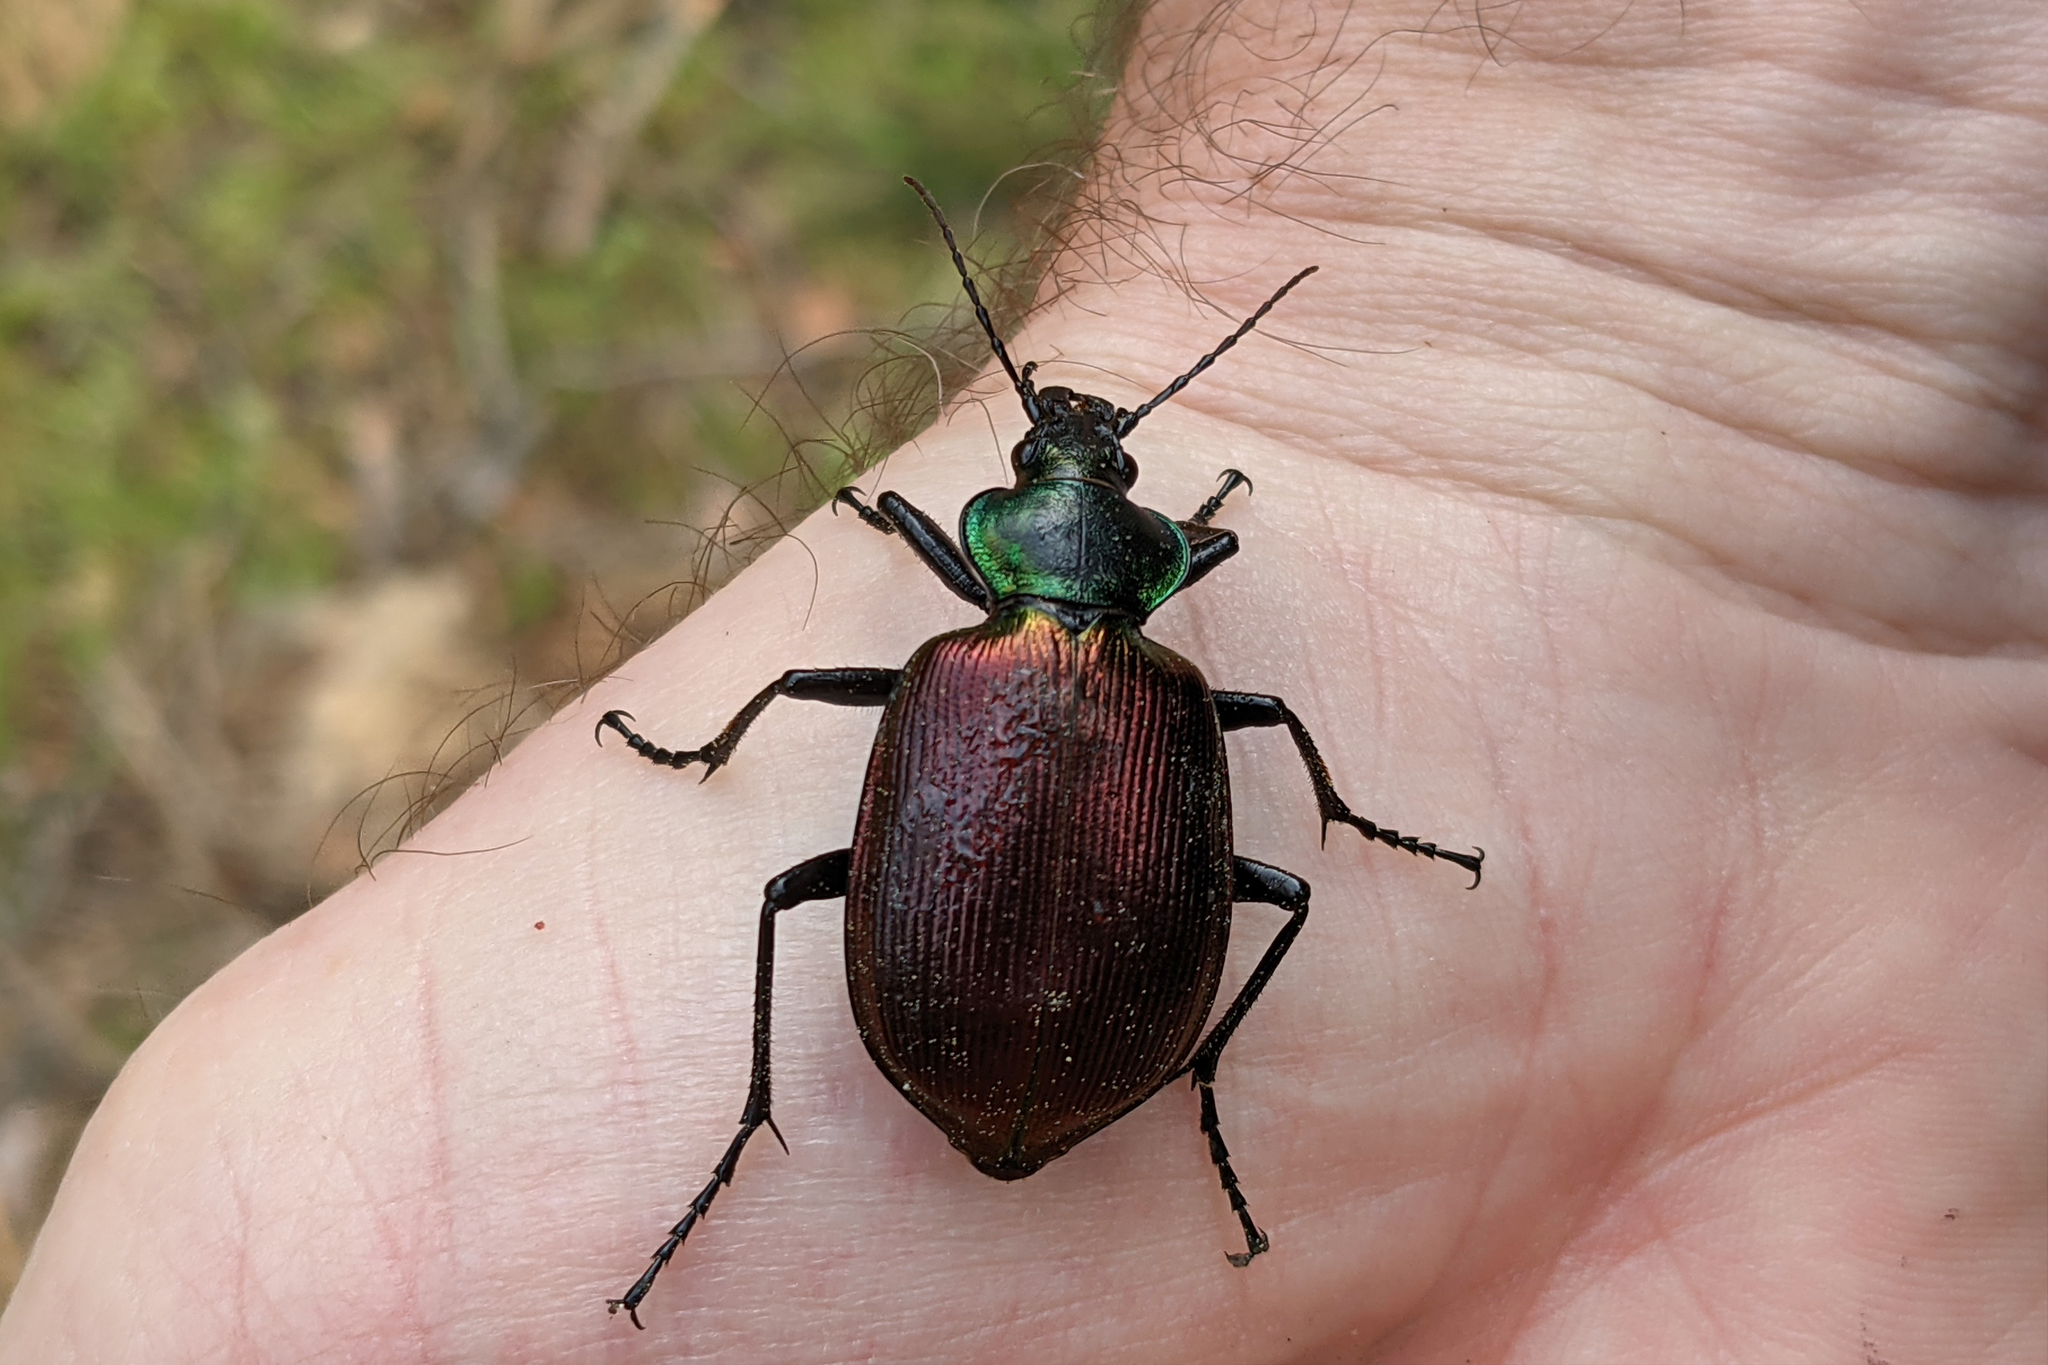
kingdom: Animalia
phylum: Arthropoda
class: Insecta
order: Coleoptera
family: Carabidae
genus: Calosoma
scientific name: Calosoma sycophanta
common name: Forest caterpillar hunter
